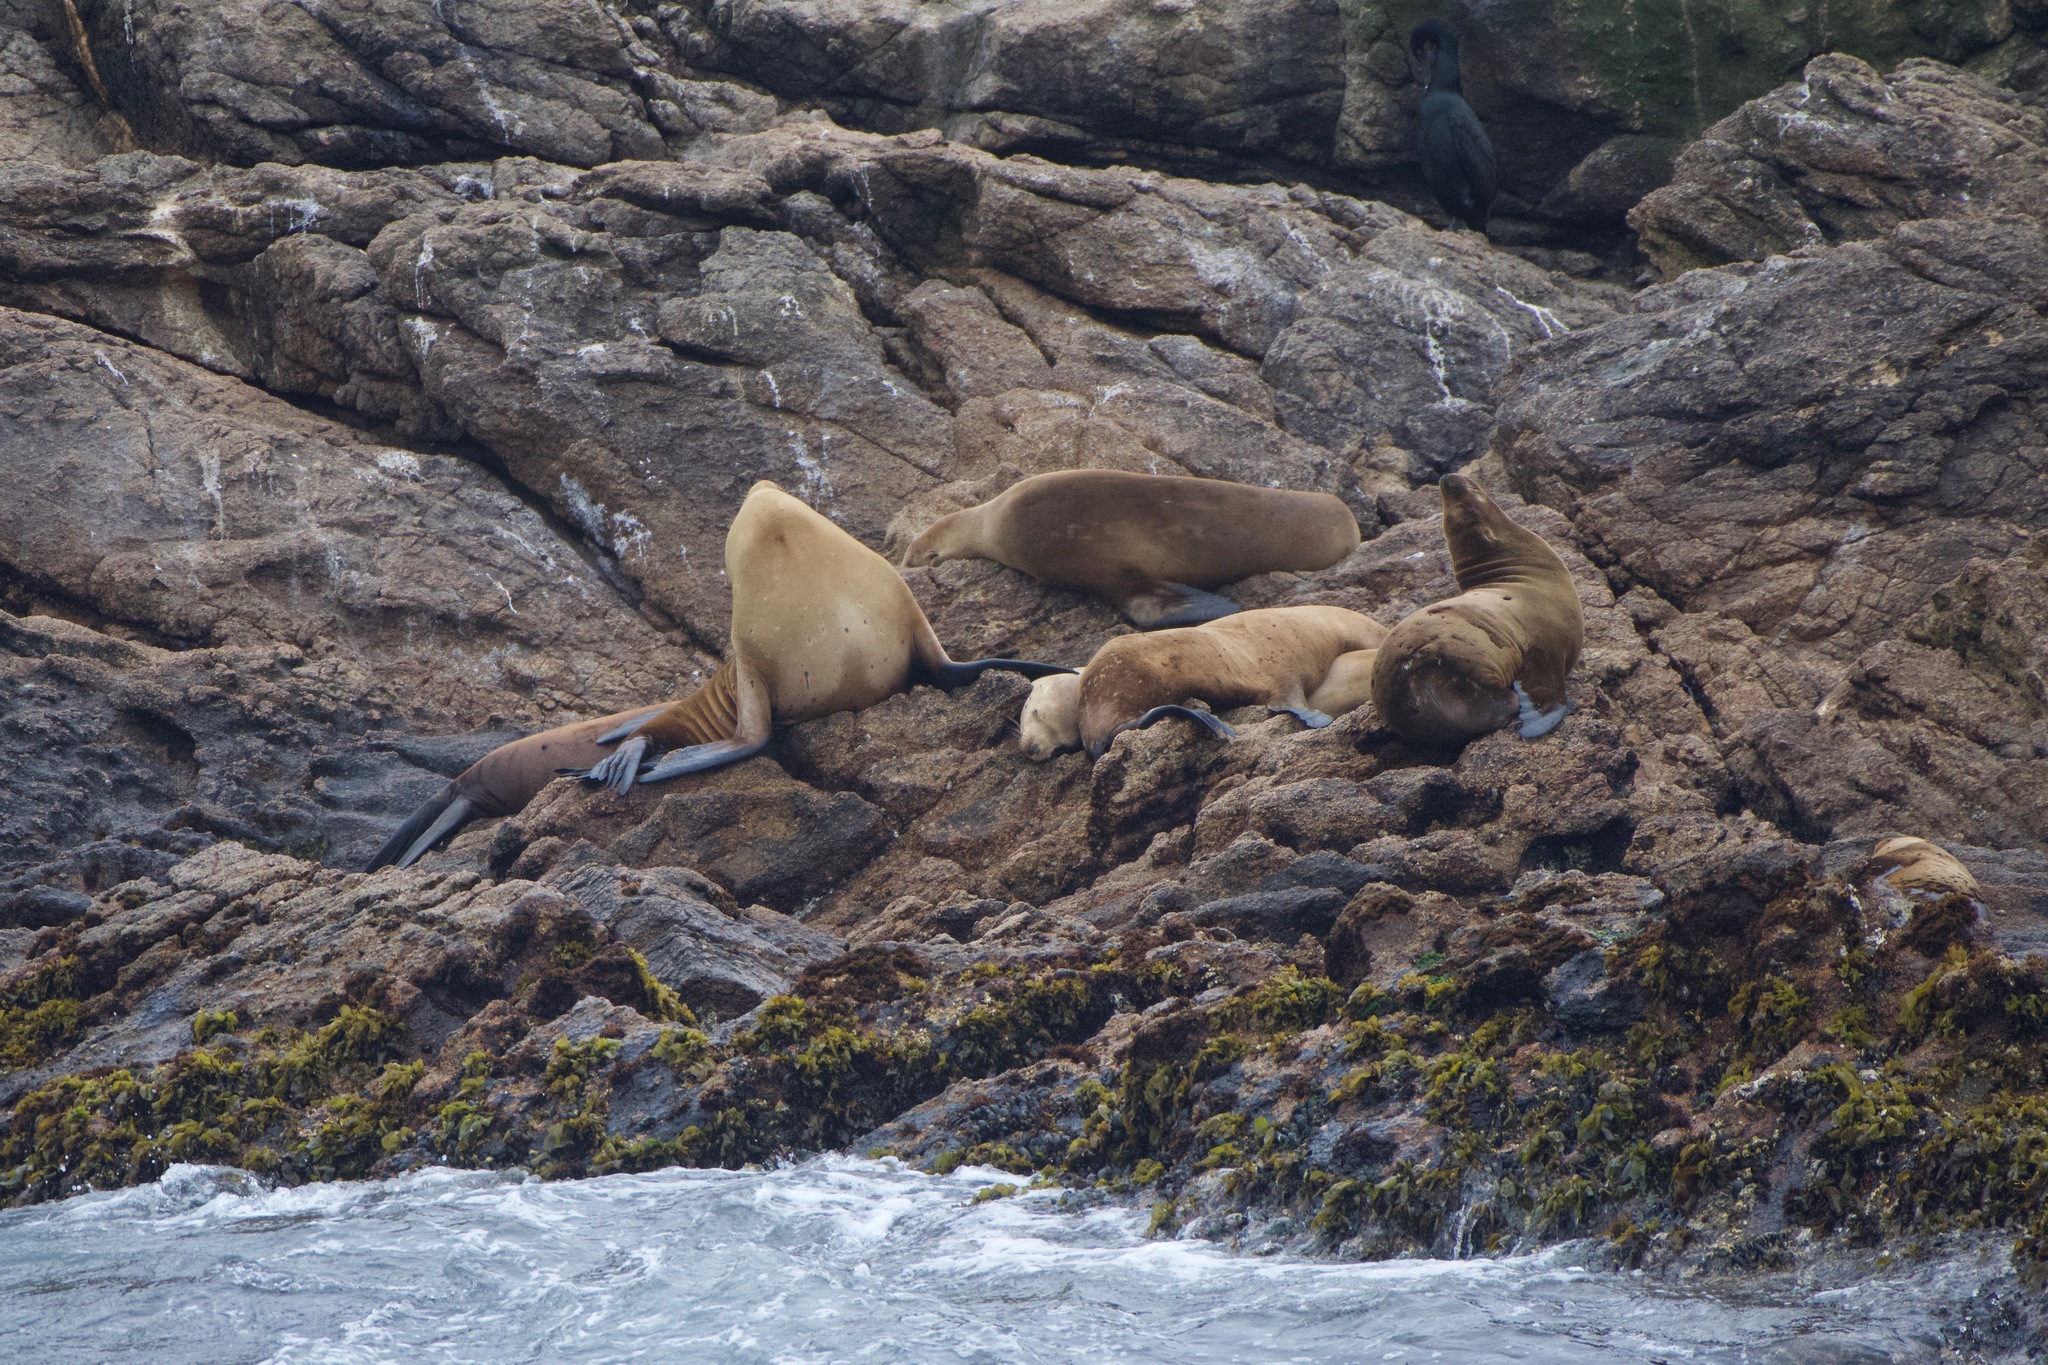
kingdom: Animalia
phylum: Chordata
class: Mammalia
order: Carnivora
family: Otariidae
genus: Eumetopias
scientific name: Eumetopias jubatus
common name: Steller sea lion
